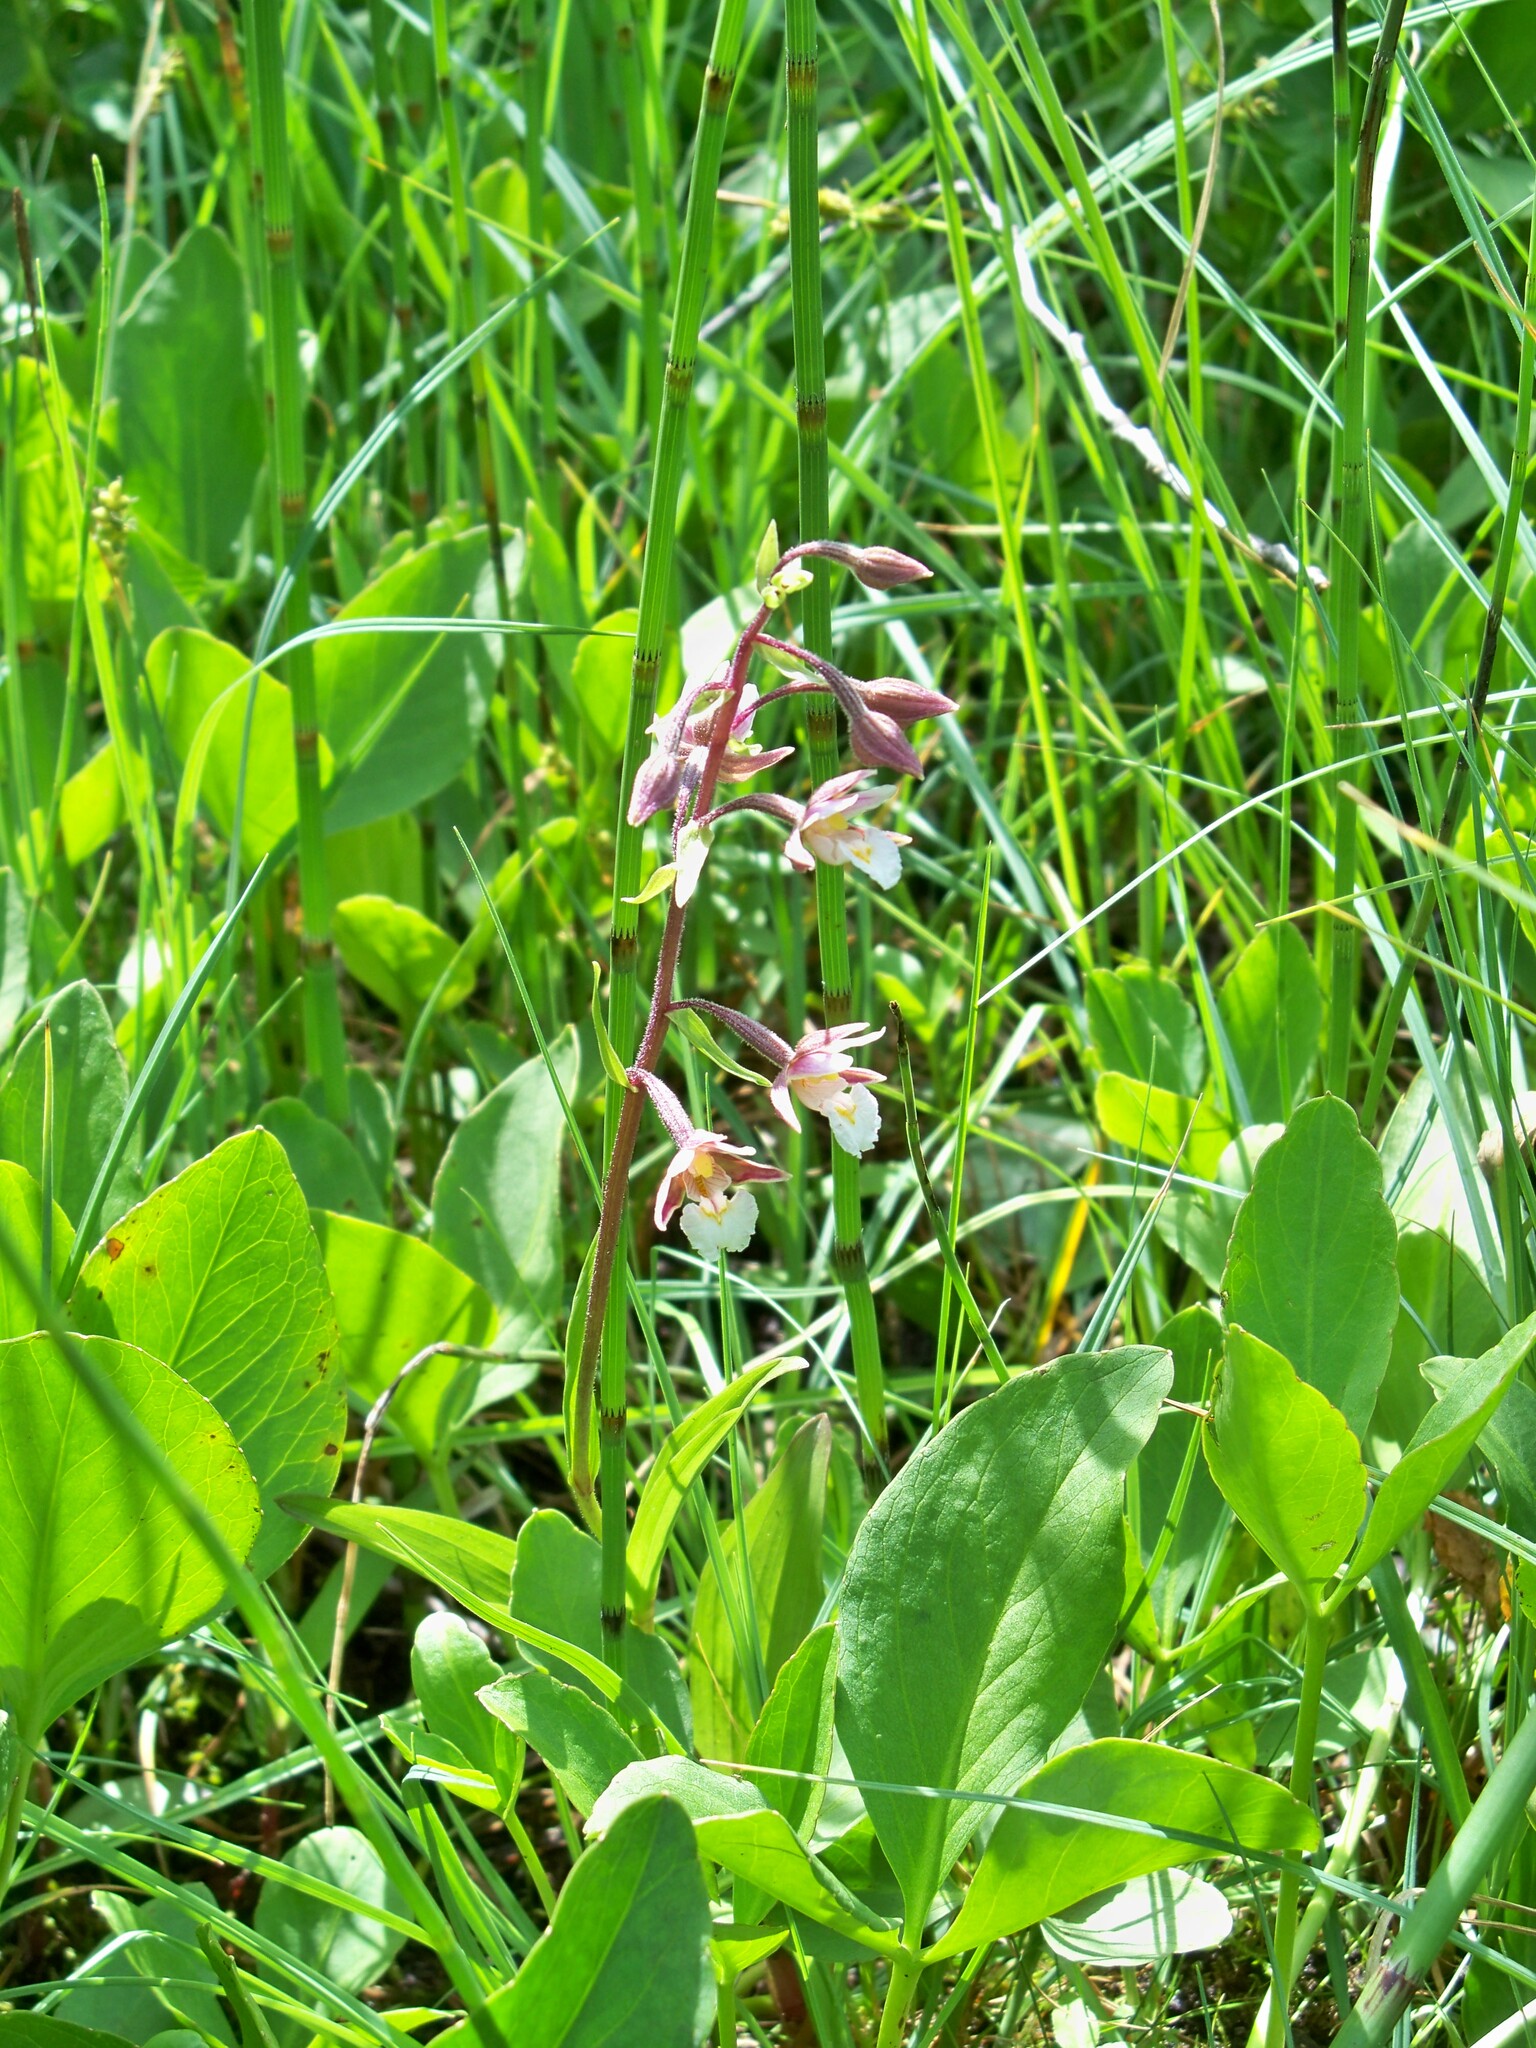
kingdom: Plantae
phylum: Tracheophyta
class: Liliopsida
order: Asparagales
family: Orchidaceae
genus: Epipactis
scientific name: Epipactis palustris
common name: Marsh helleborine
